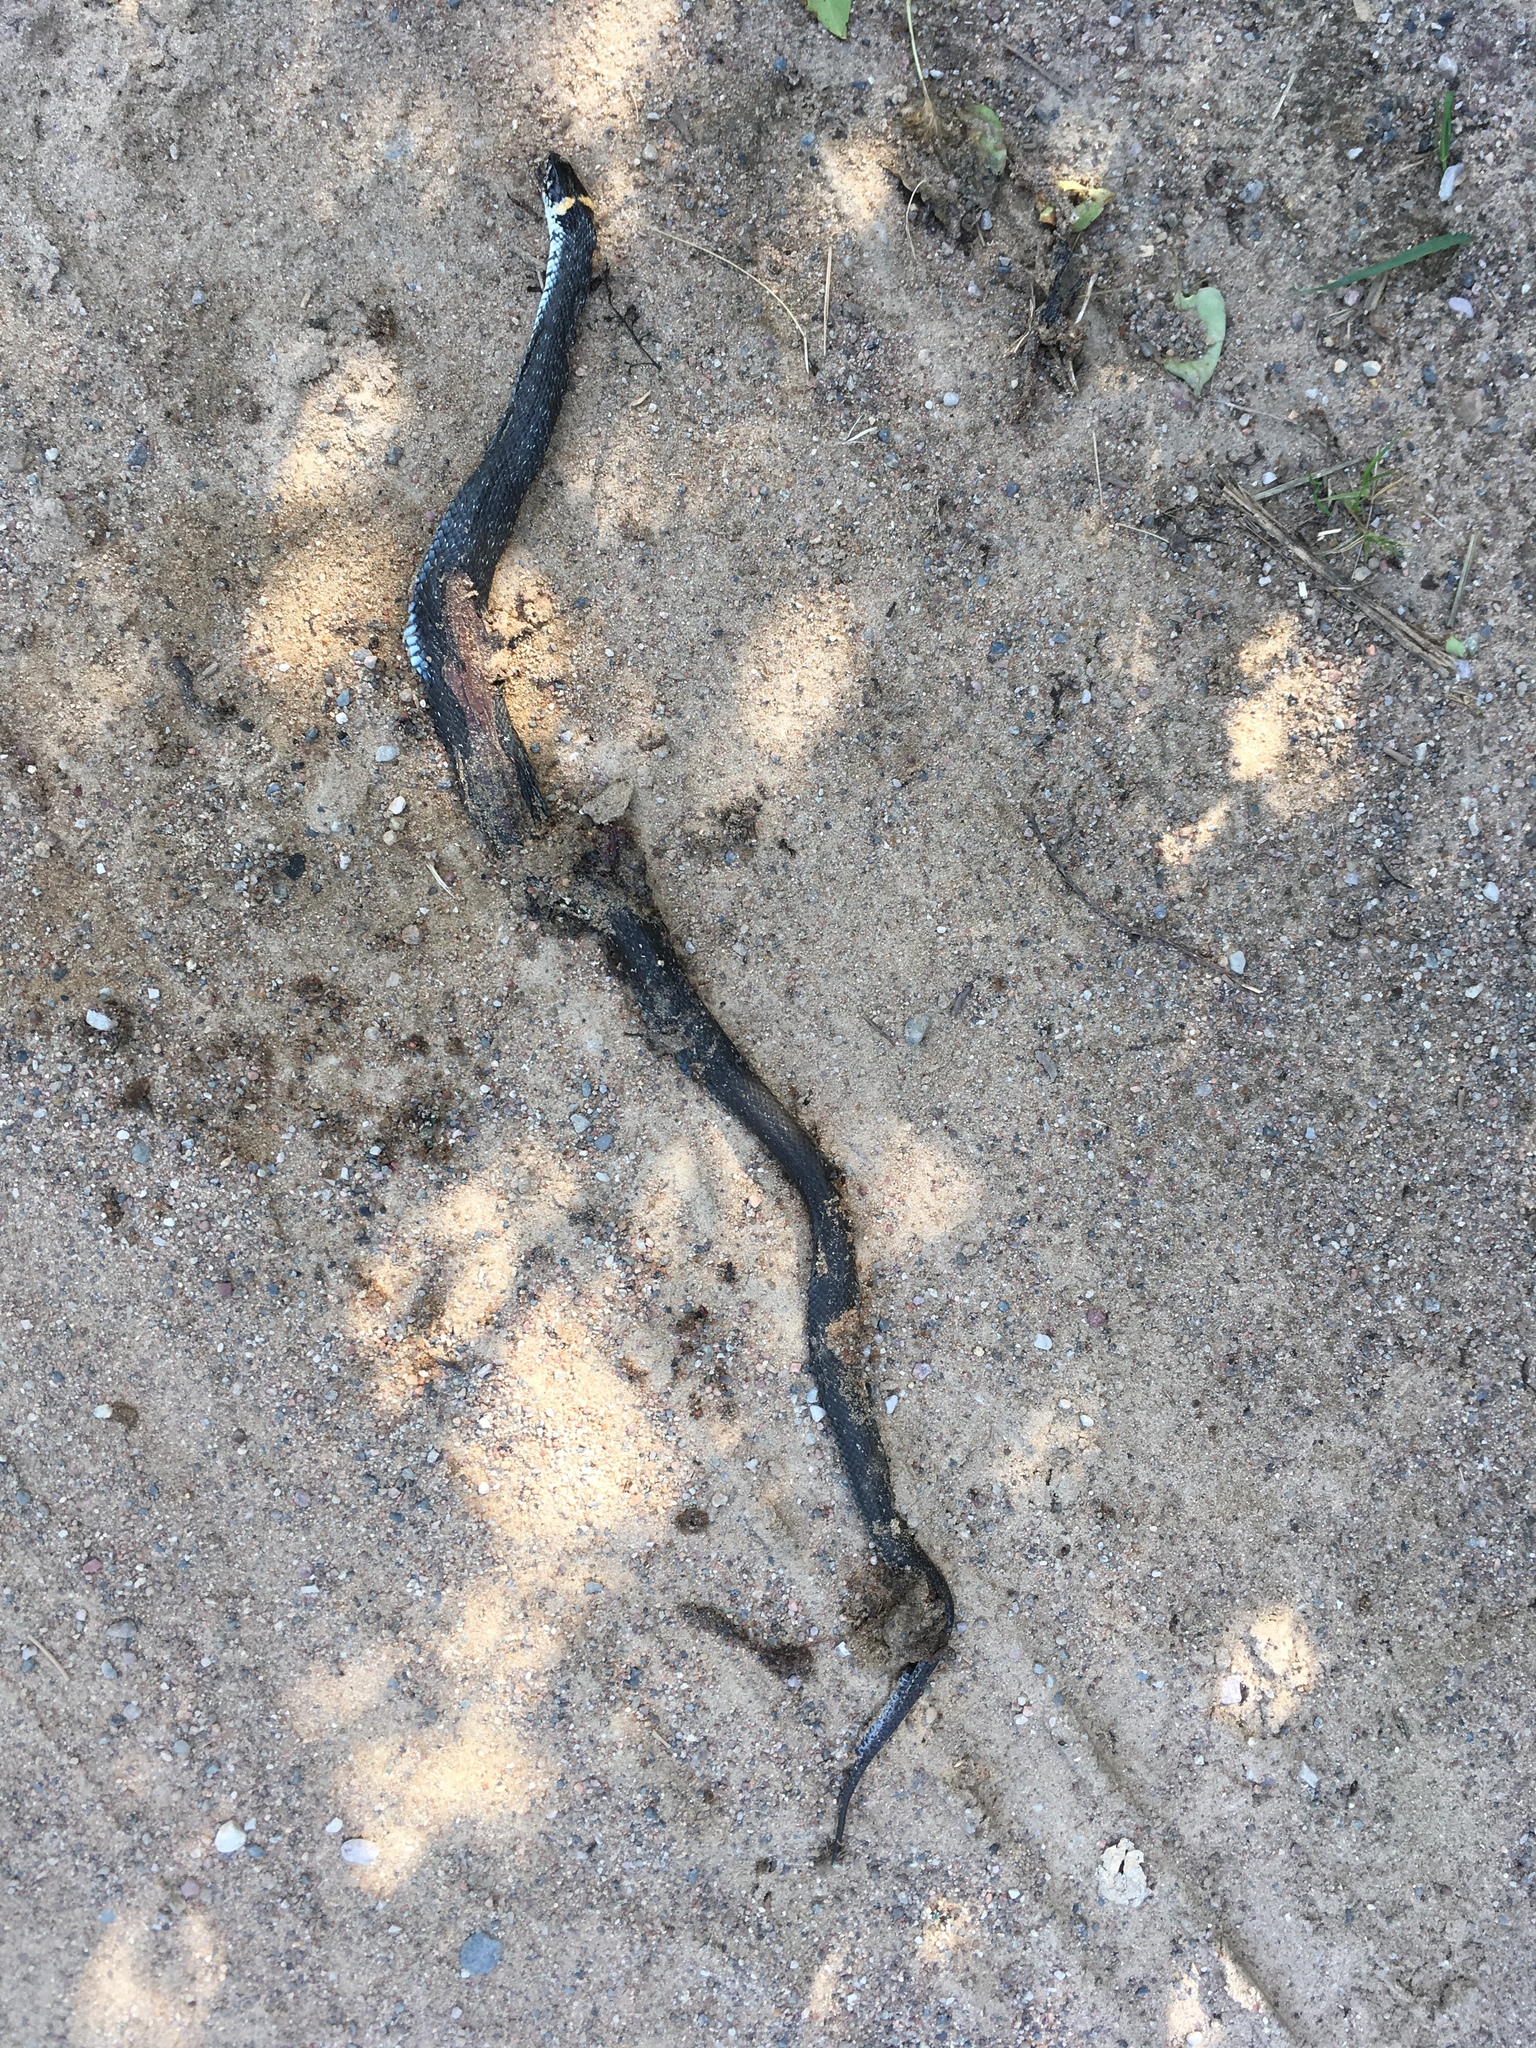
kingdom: Animalia
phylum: Chordata
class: Squamata
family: Colubridae
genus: Natrix
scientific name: Natrix natrix
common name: Grass snake
